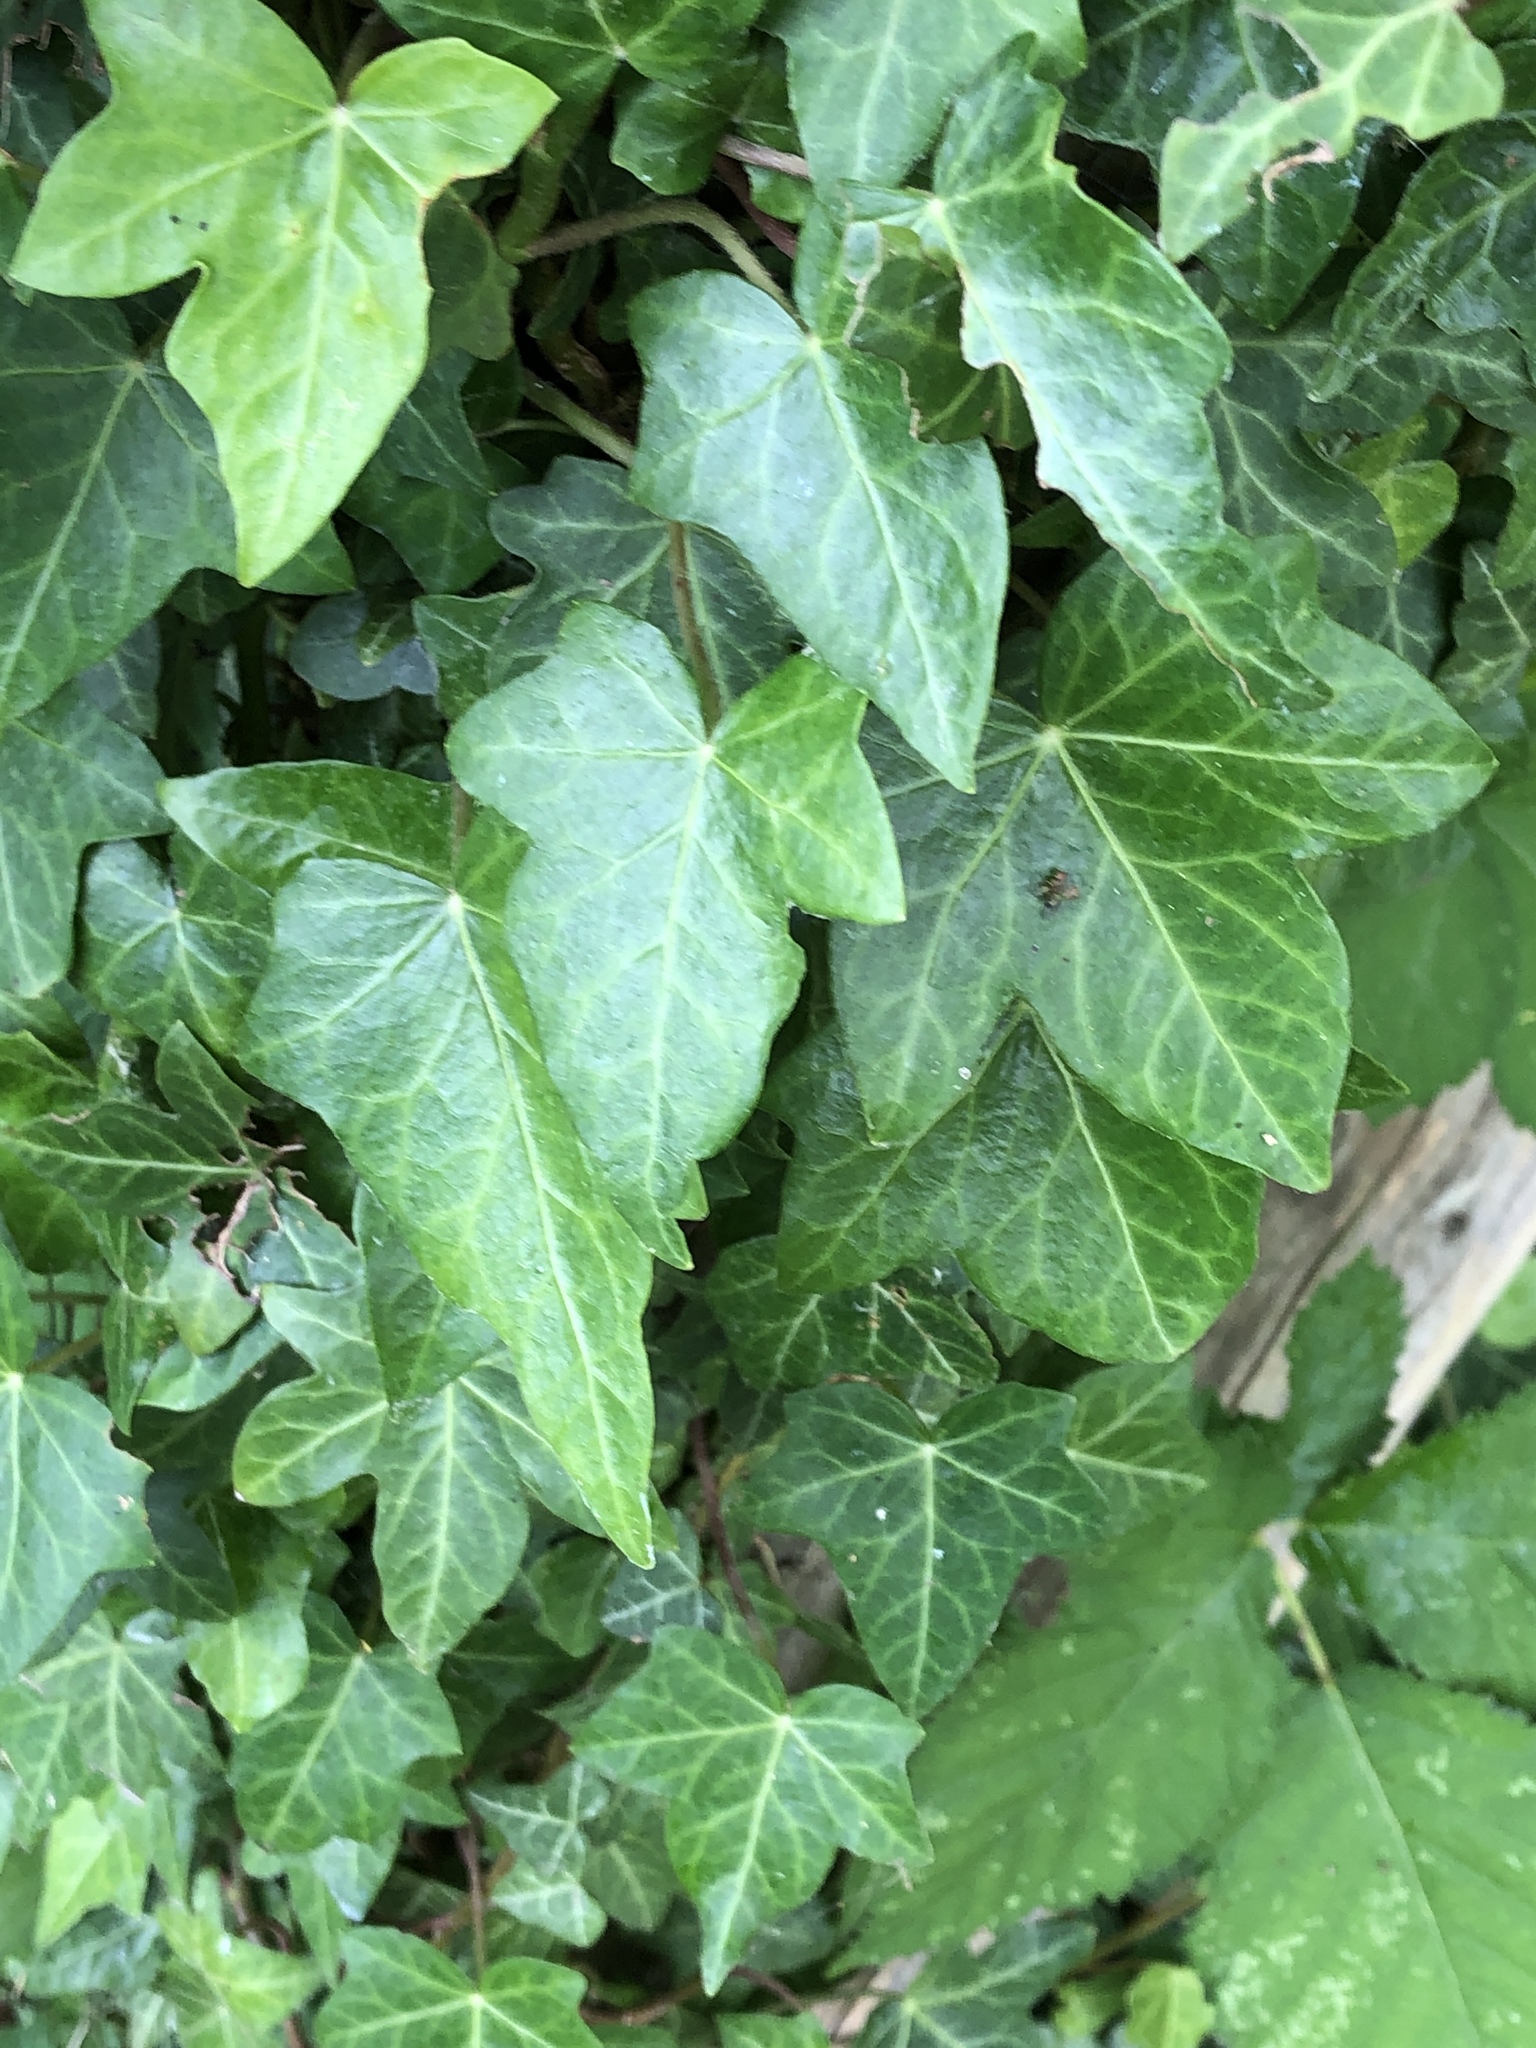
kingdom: Plantae
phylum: Tracheophyta
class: Magnoliopsida
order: Apiales
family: Araliaceae
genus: Hedera
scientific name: Hedera helix
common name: Ivy
